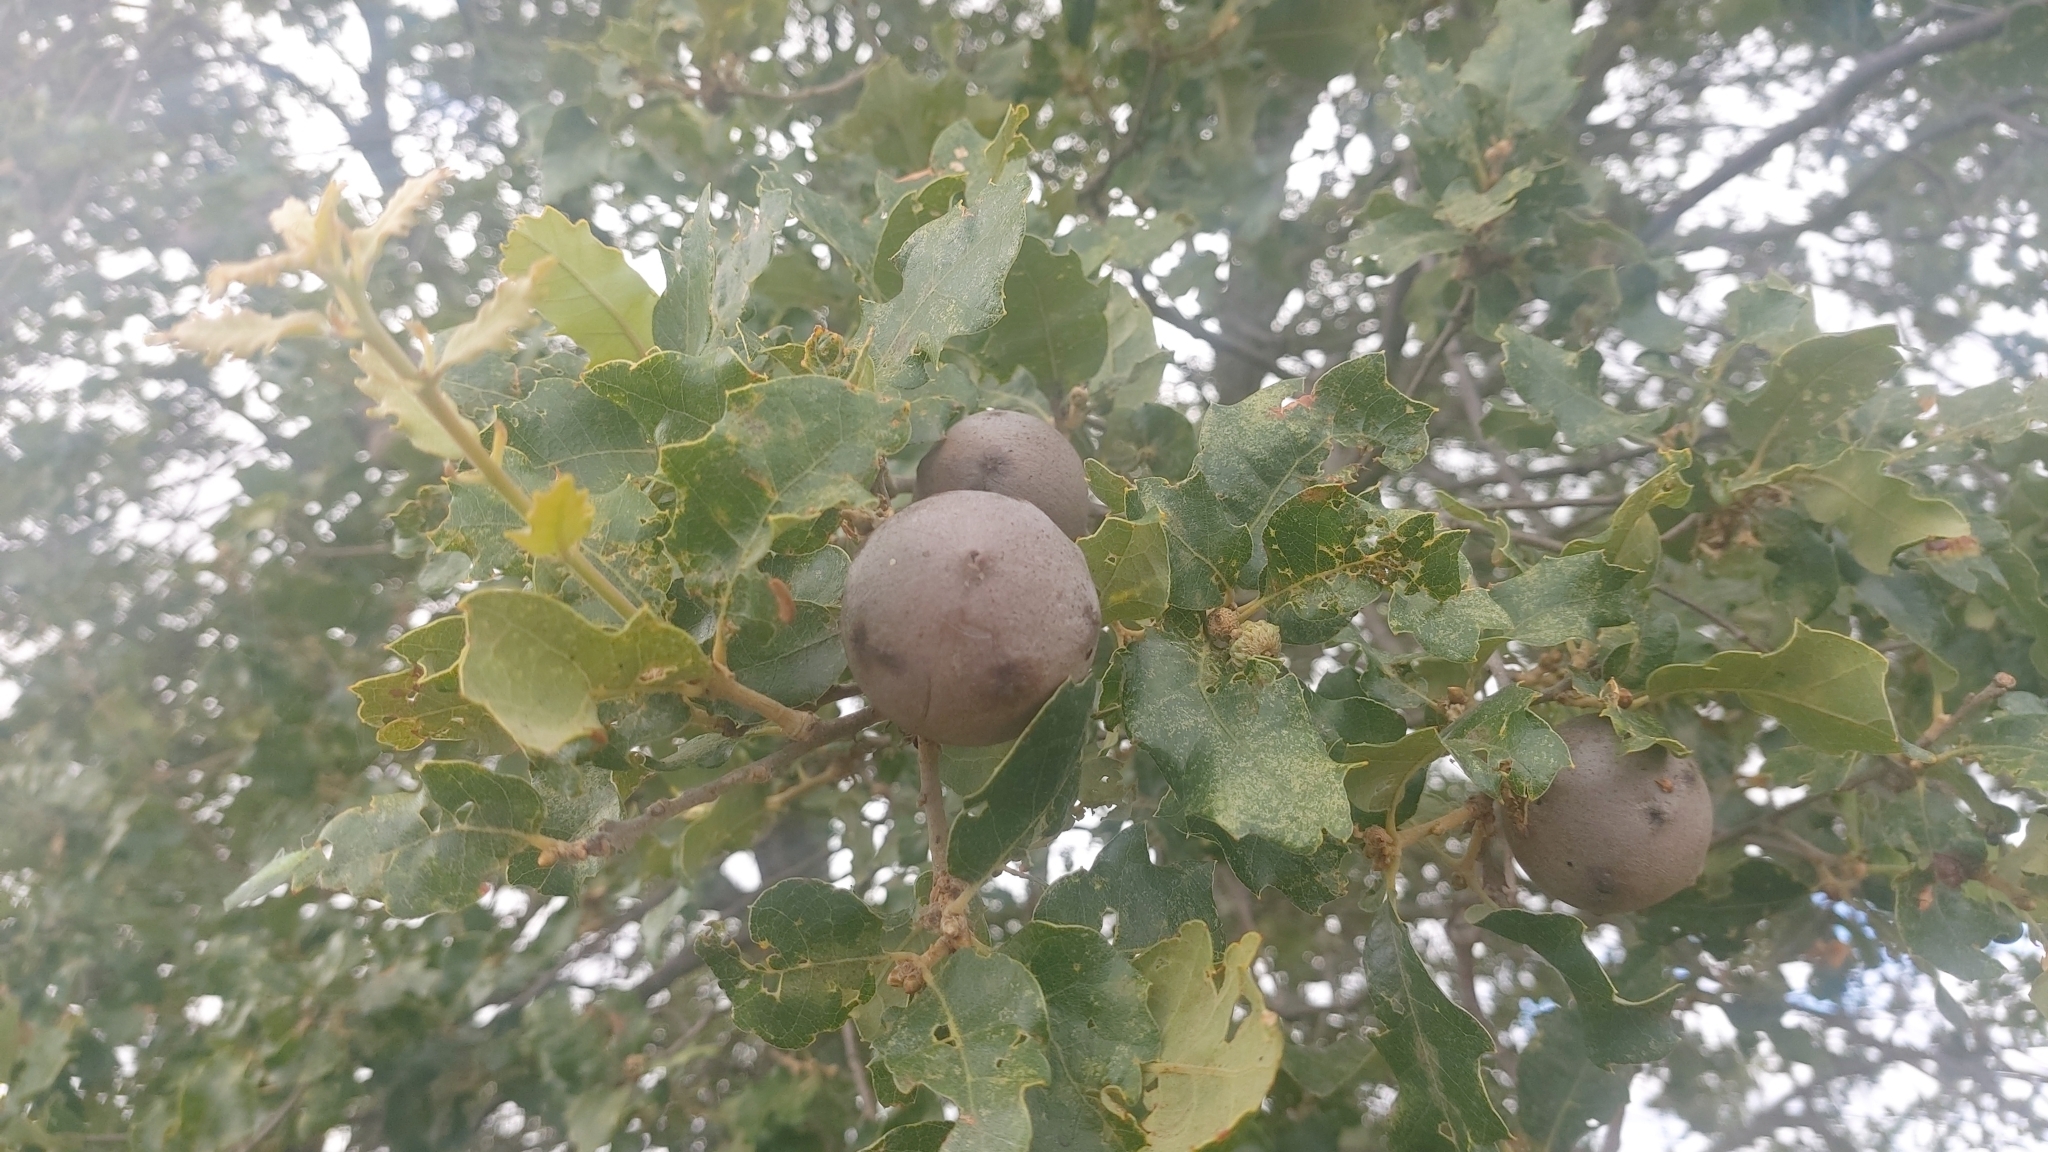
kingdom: Animalia
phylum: Arthropoda
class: Insecta
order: Hymenoptera
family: Cynipidae
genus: Andricus
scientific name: Andricus quercustozae
